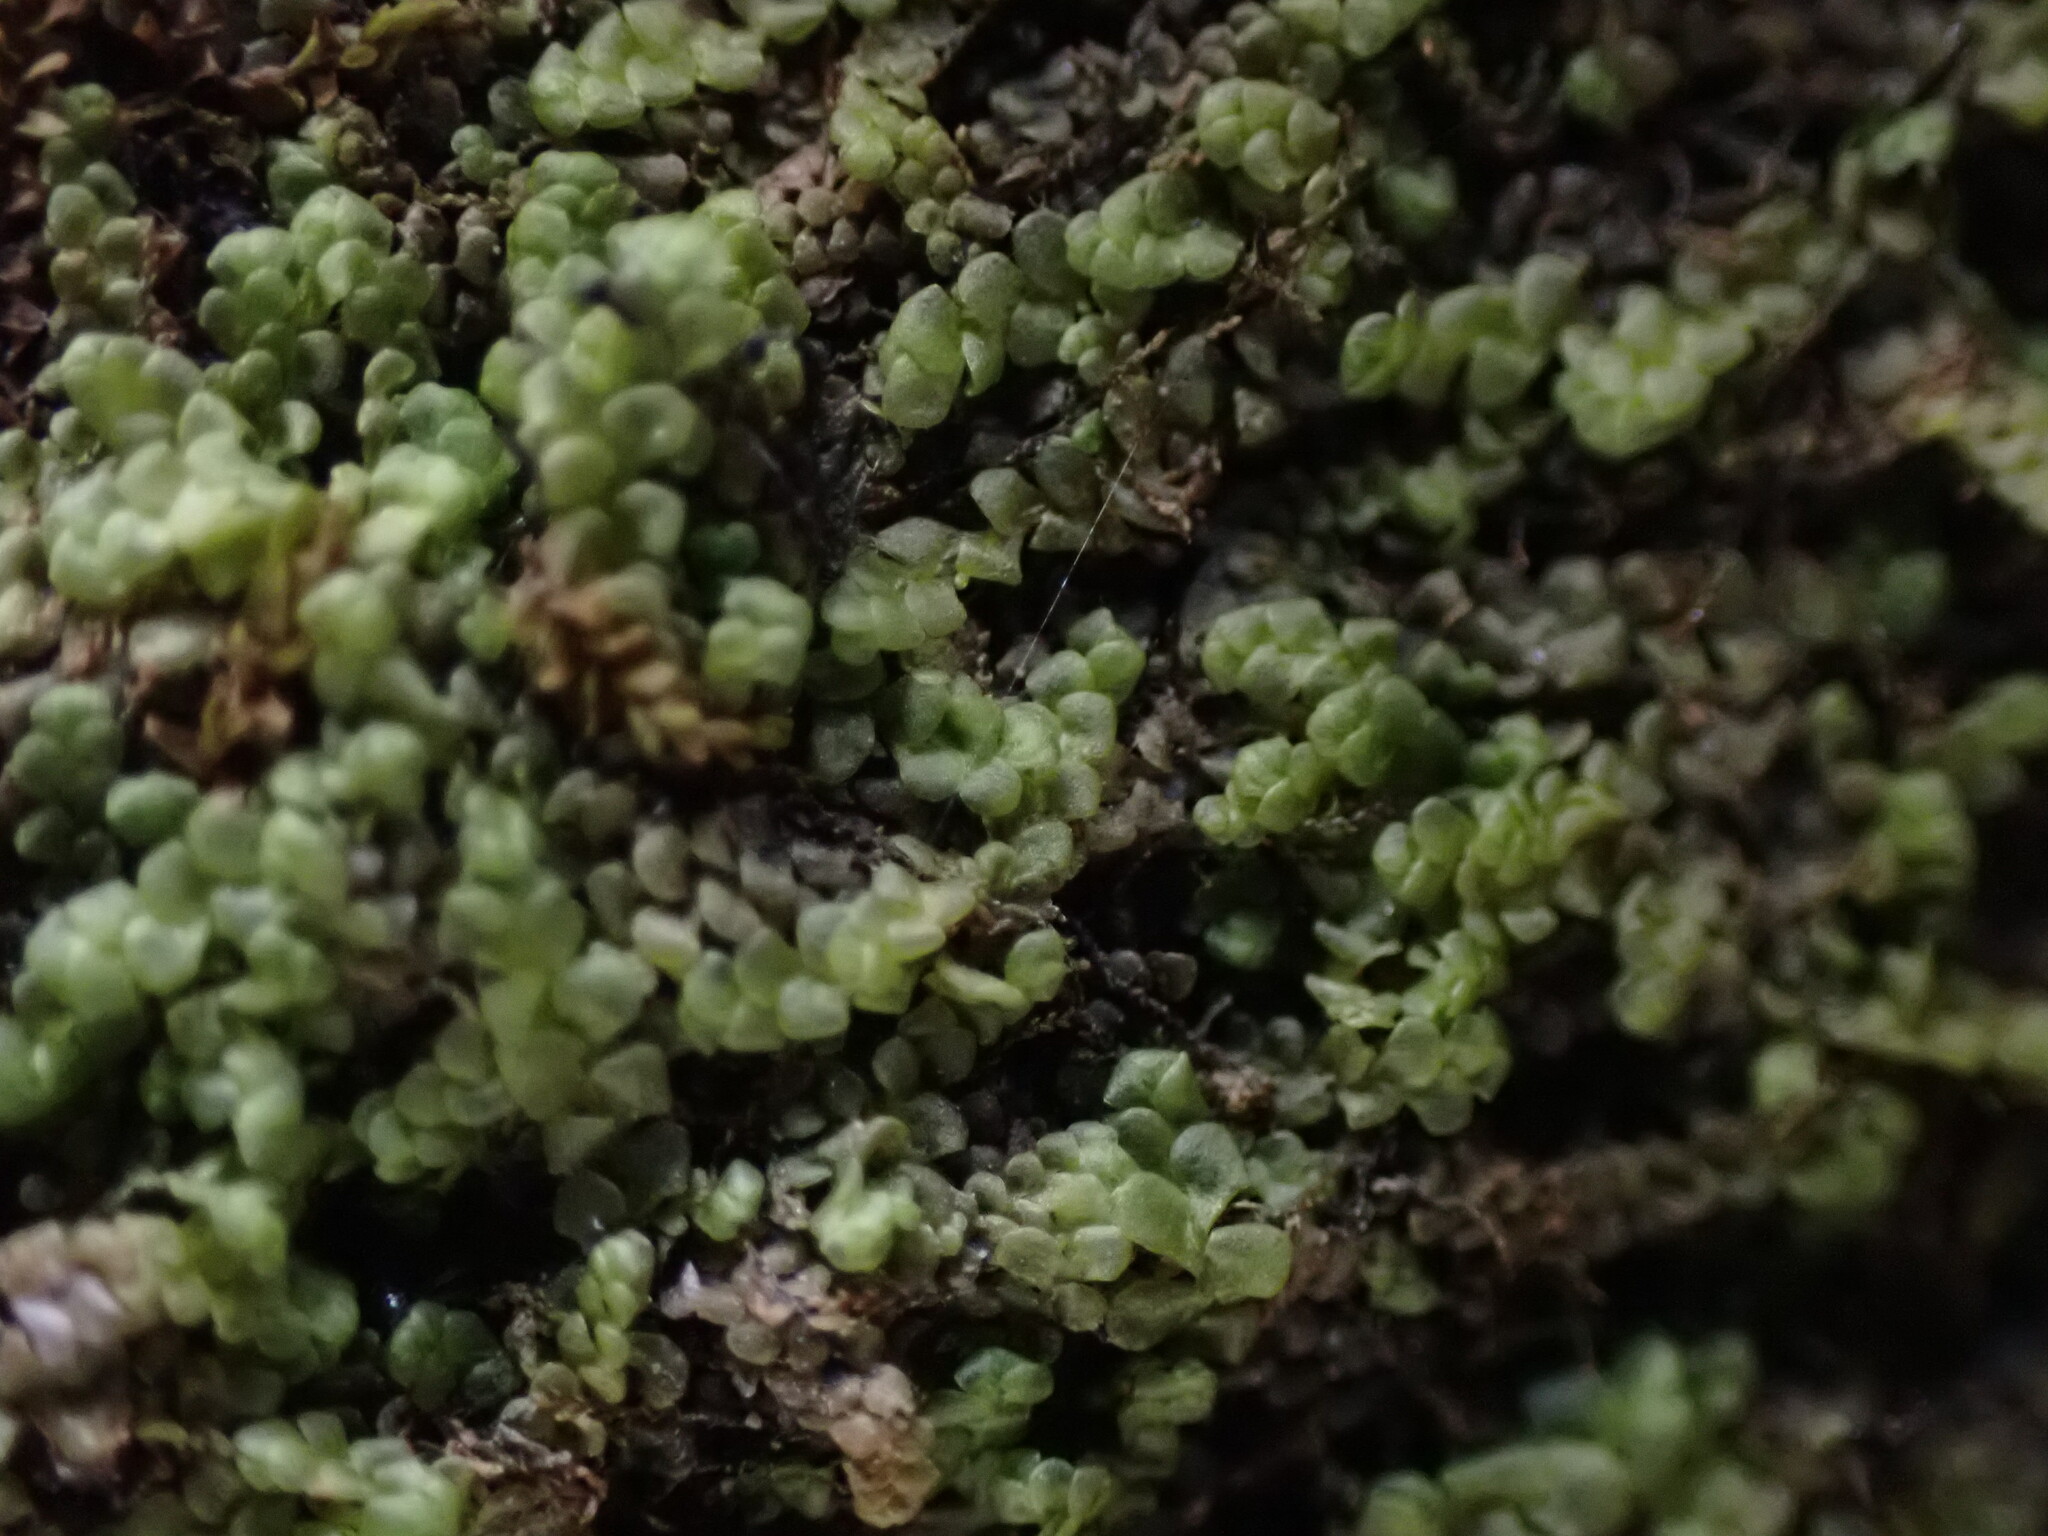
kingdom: Plantae
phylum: Marchantiophyta
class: Jungermanniopsida
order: Porellales
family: Radulaceae
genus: Radula
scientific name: Radula complanata
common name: Flat-leaved scalewort
